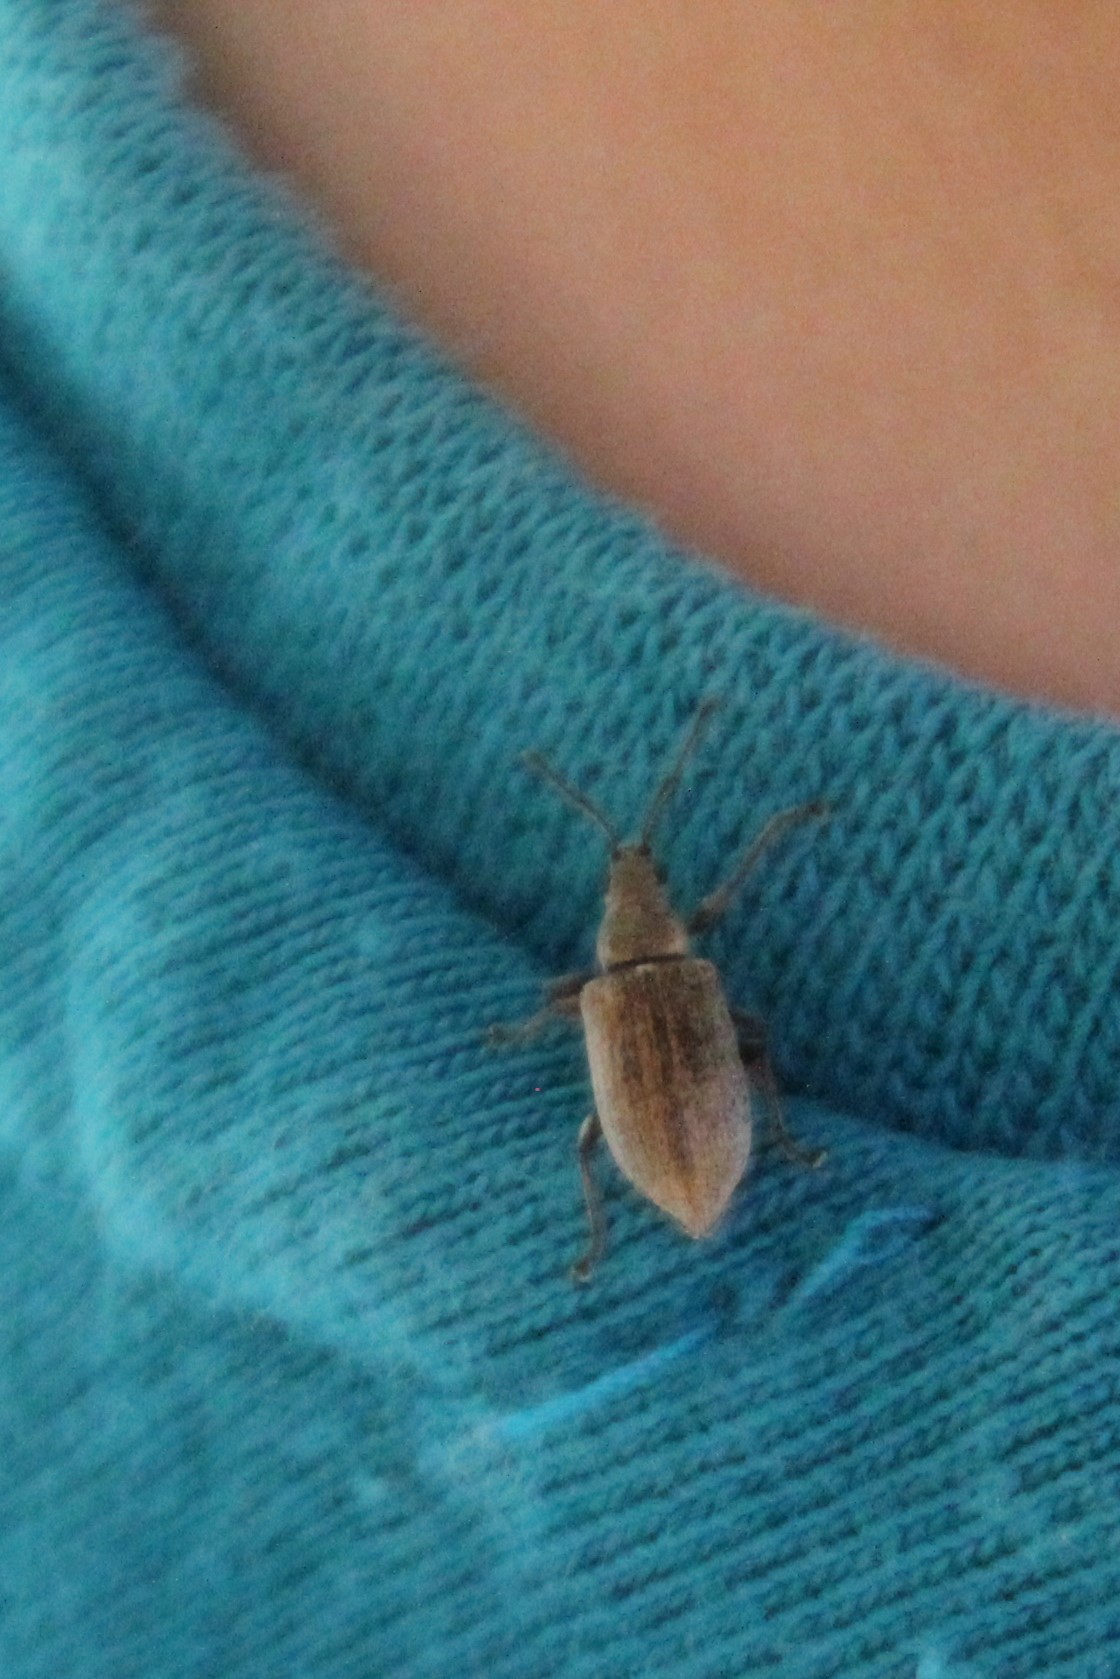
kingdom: Animalia
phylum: Arthropoda
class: Insecta
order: Coleoptera
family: Curculionidae
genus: Phyllobius
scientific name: Phyllobius pyri
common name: Common leaf weevil
